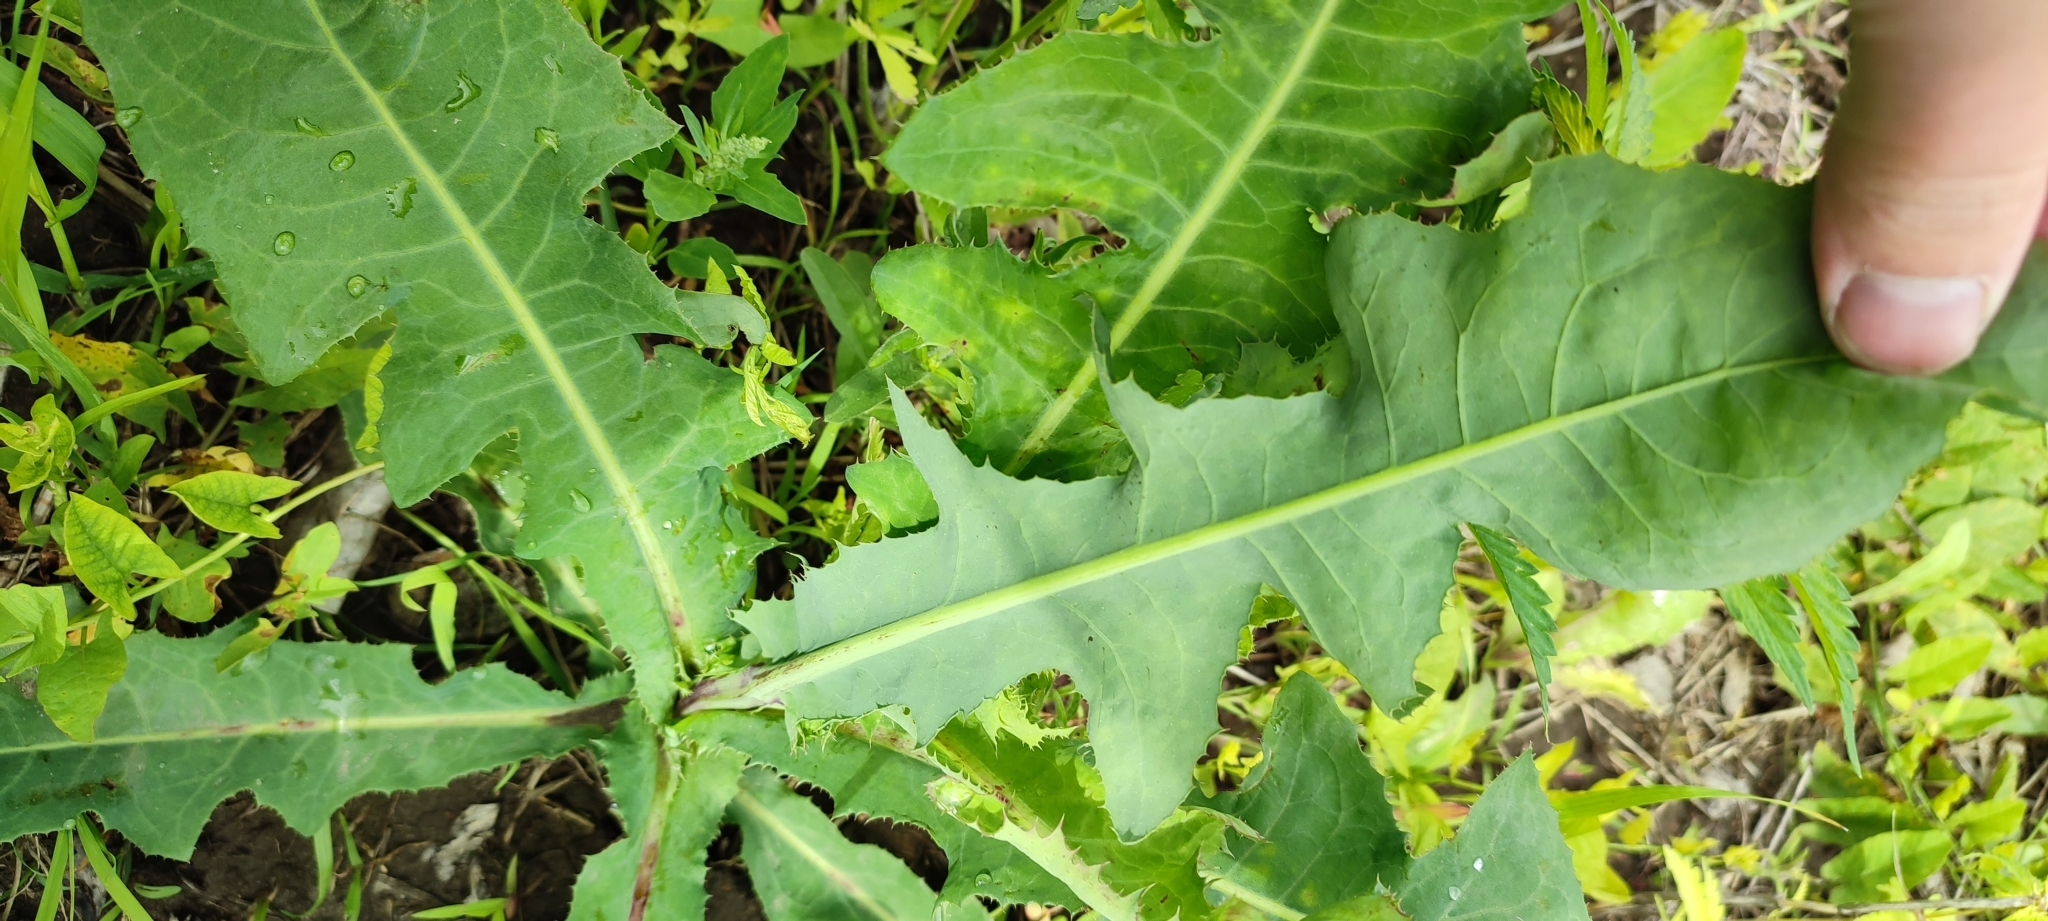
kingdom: Plantae
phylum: Tracheophyta
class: Magnoliopsida
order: Asterales
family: Asteraceae
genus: Sonchus
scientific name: Sonchus arvensis
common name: Perennial sow-thistle
